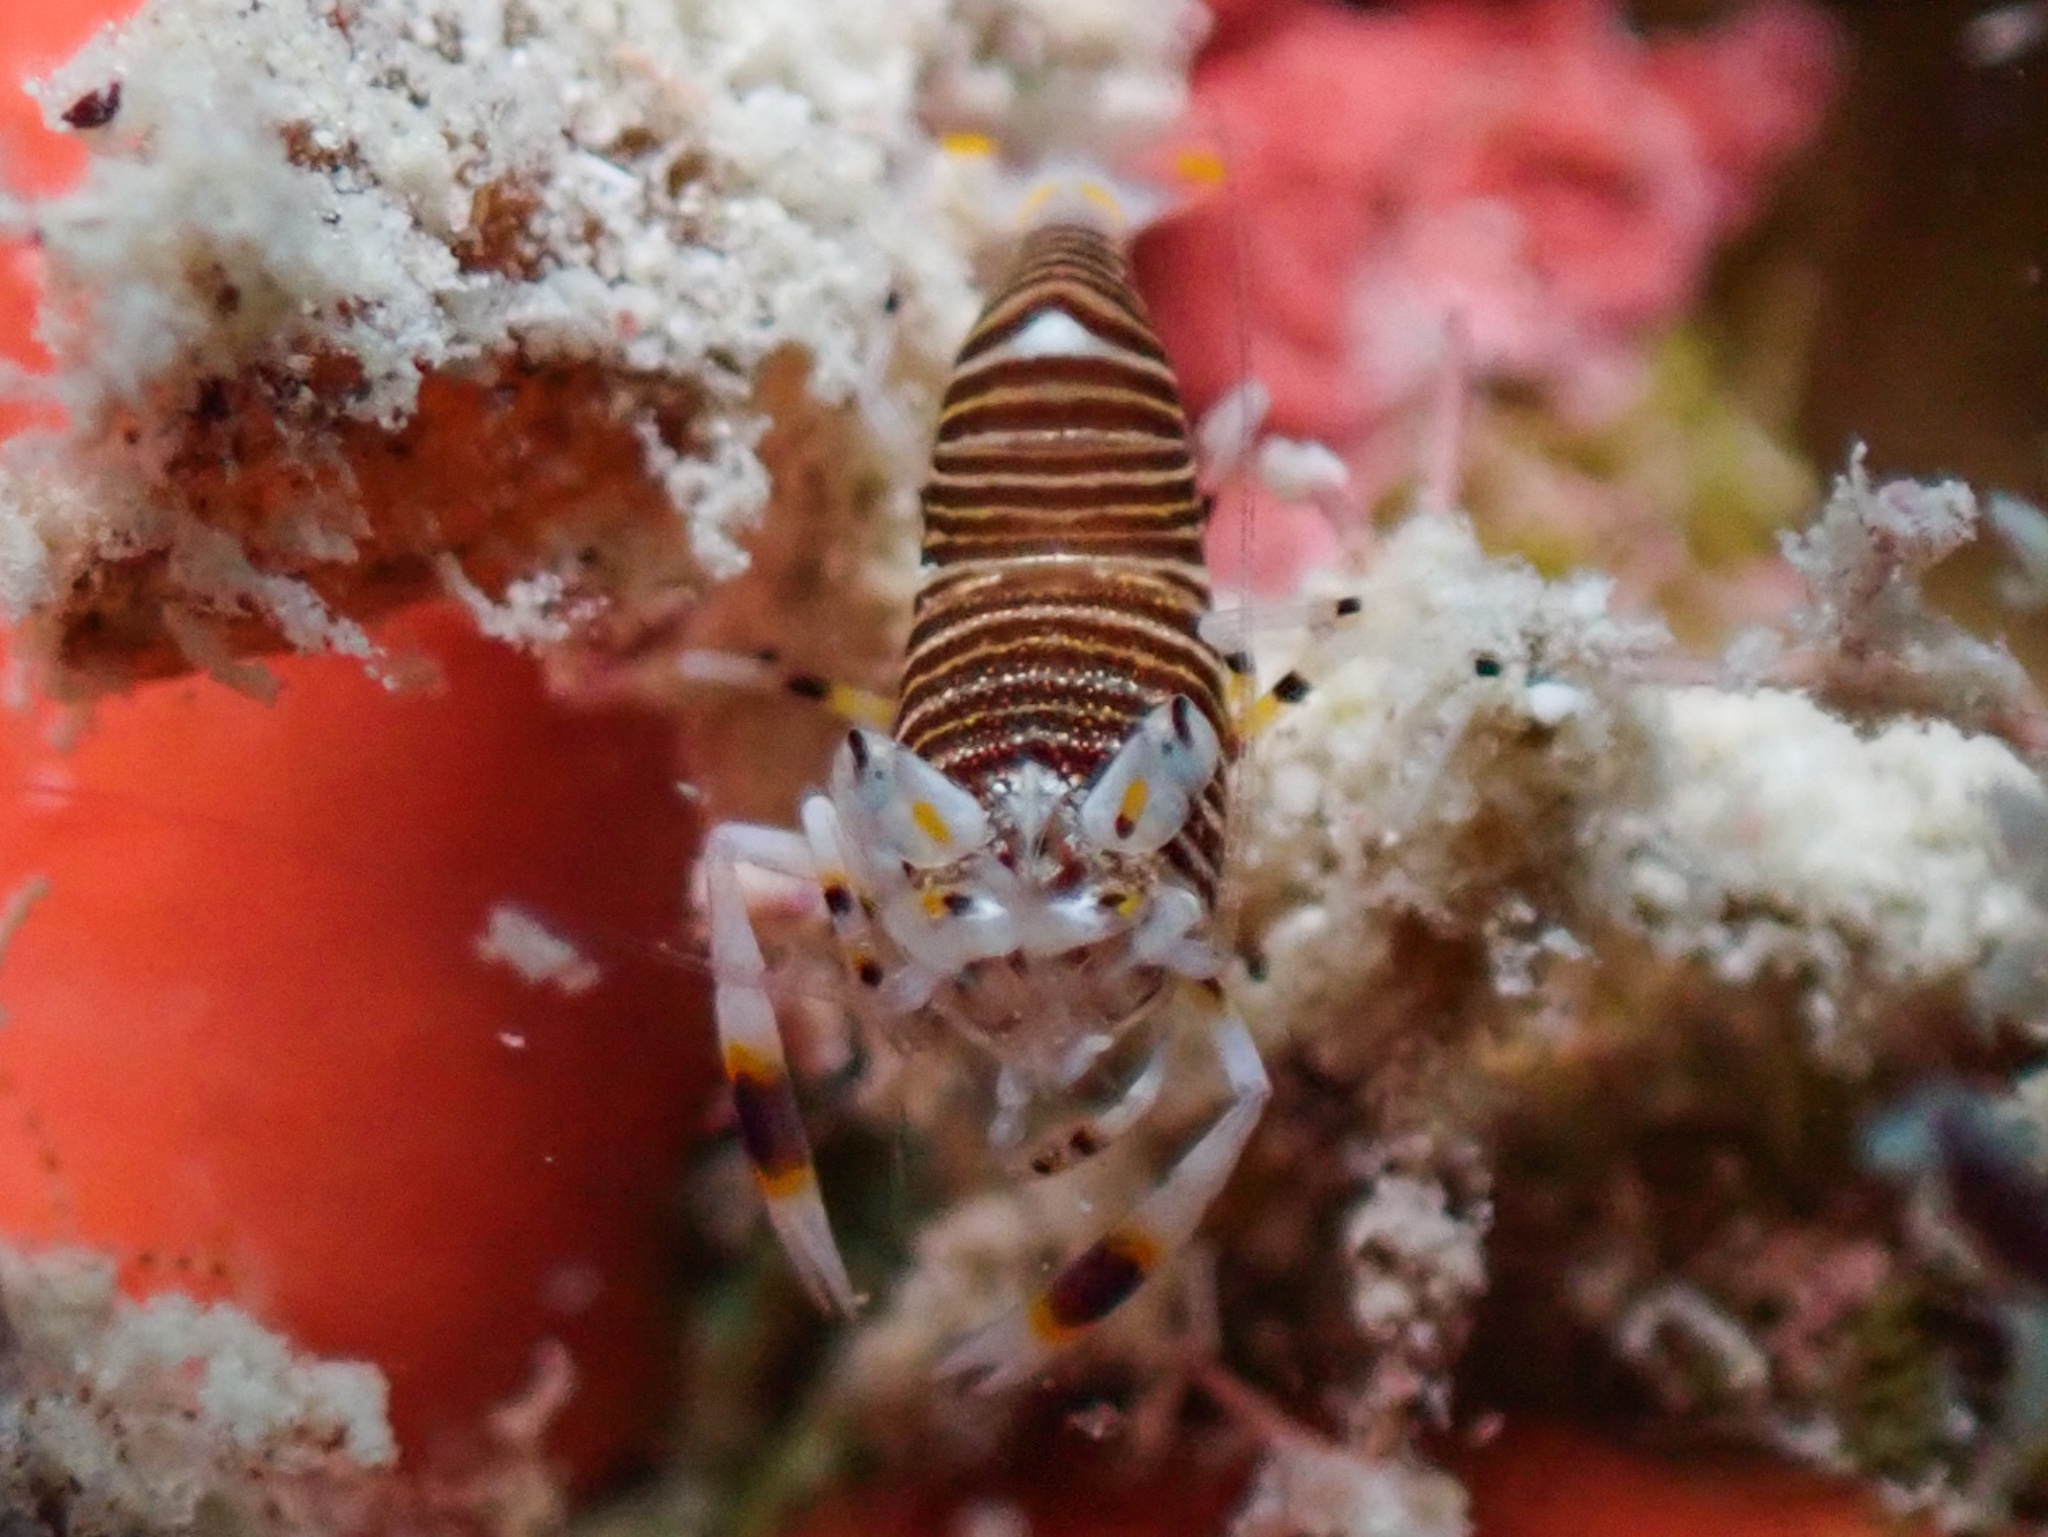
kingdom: Animalia
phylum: Arthropoda
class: Malacostraca
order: Decapoda
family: Palaemonidae
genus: Gnathophyllum
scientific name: Gnathophyllum americanum
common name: Bumblebee shrimp
